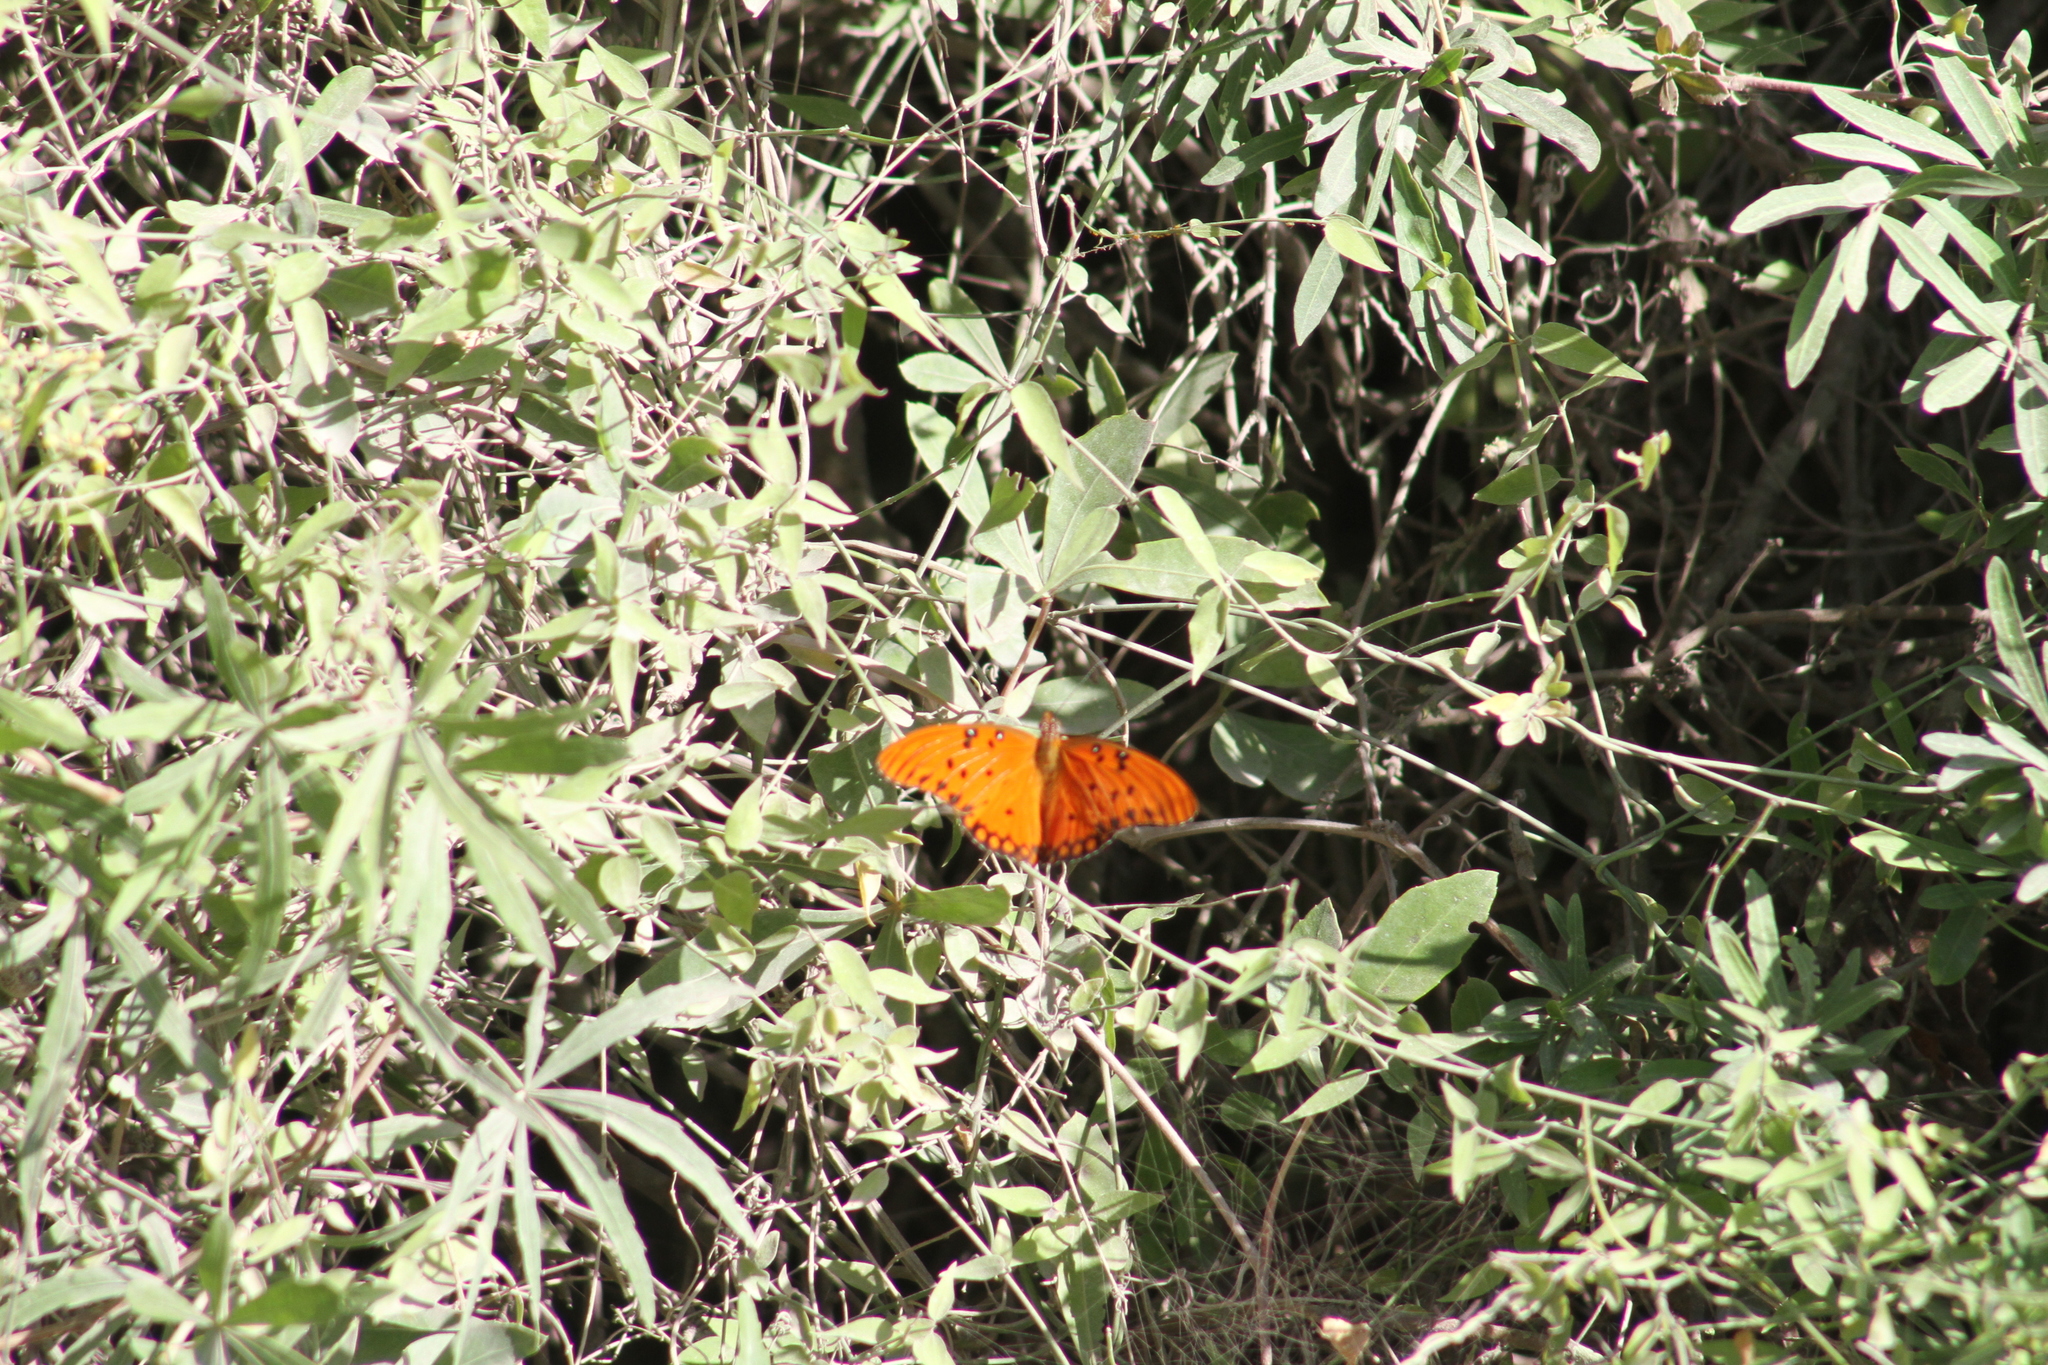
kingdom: Animalia
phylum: Arthropoda
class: Insecta
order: Lepidoptera
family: Nymphalidae
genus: Dione
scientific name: Dione vanillae
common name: Gulf fritillary
